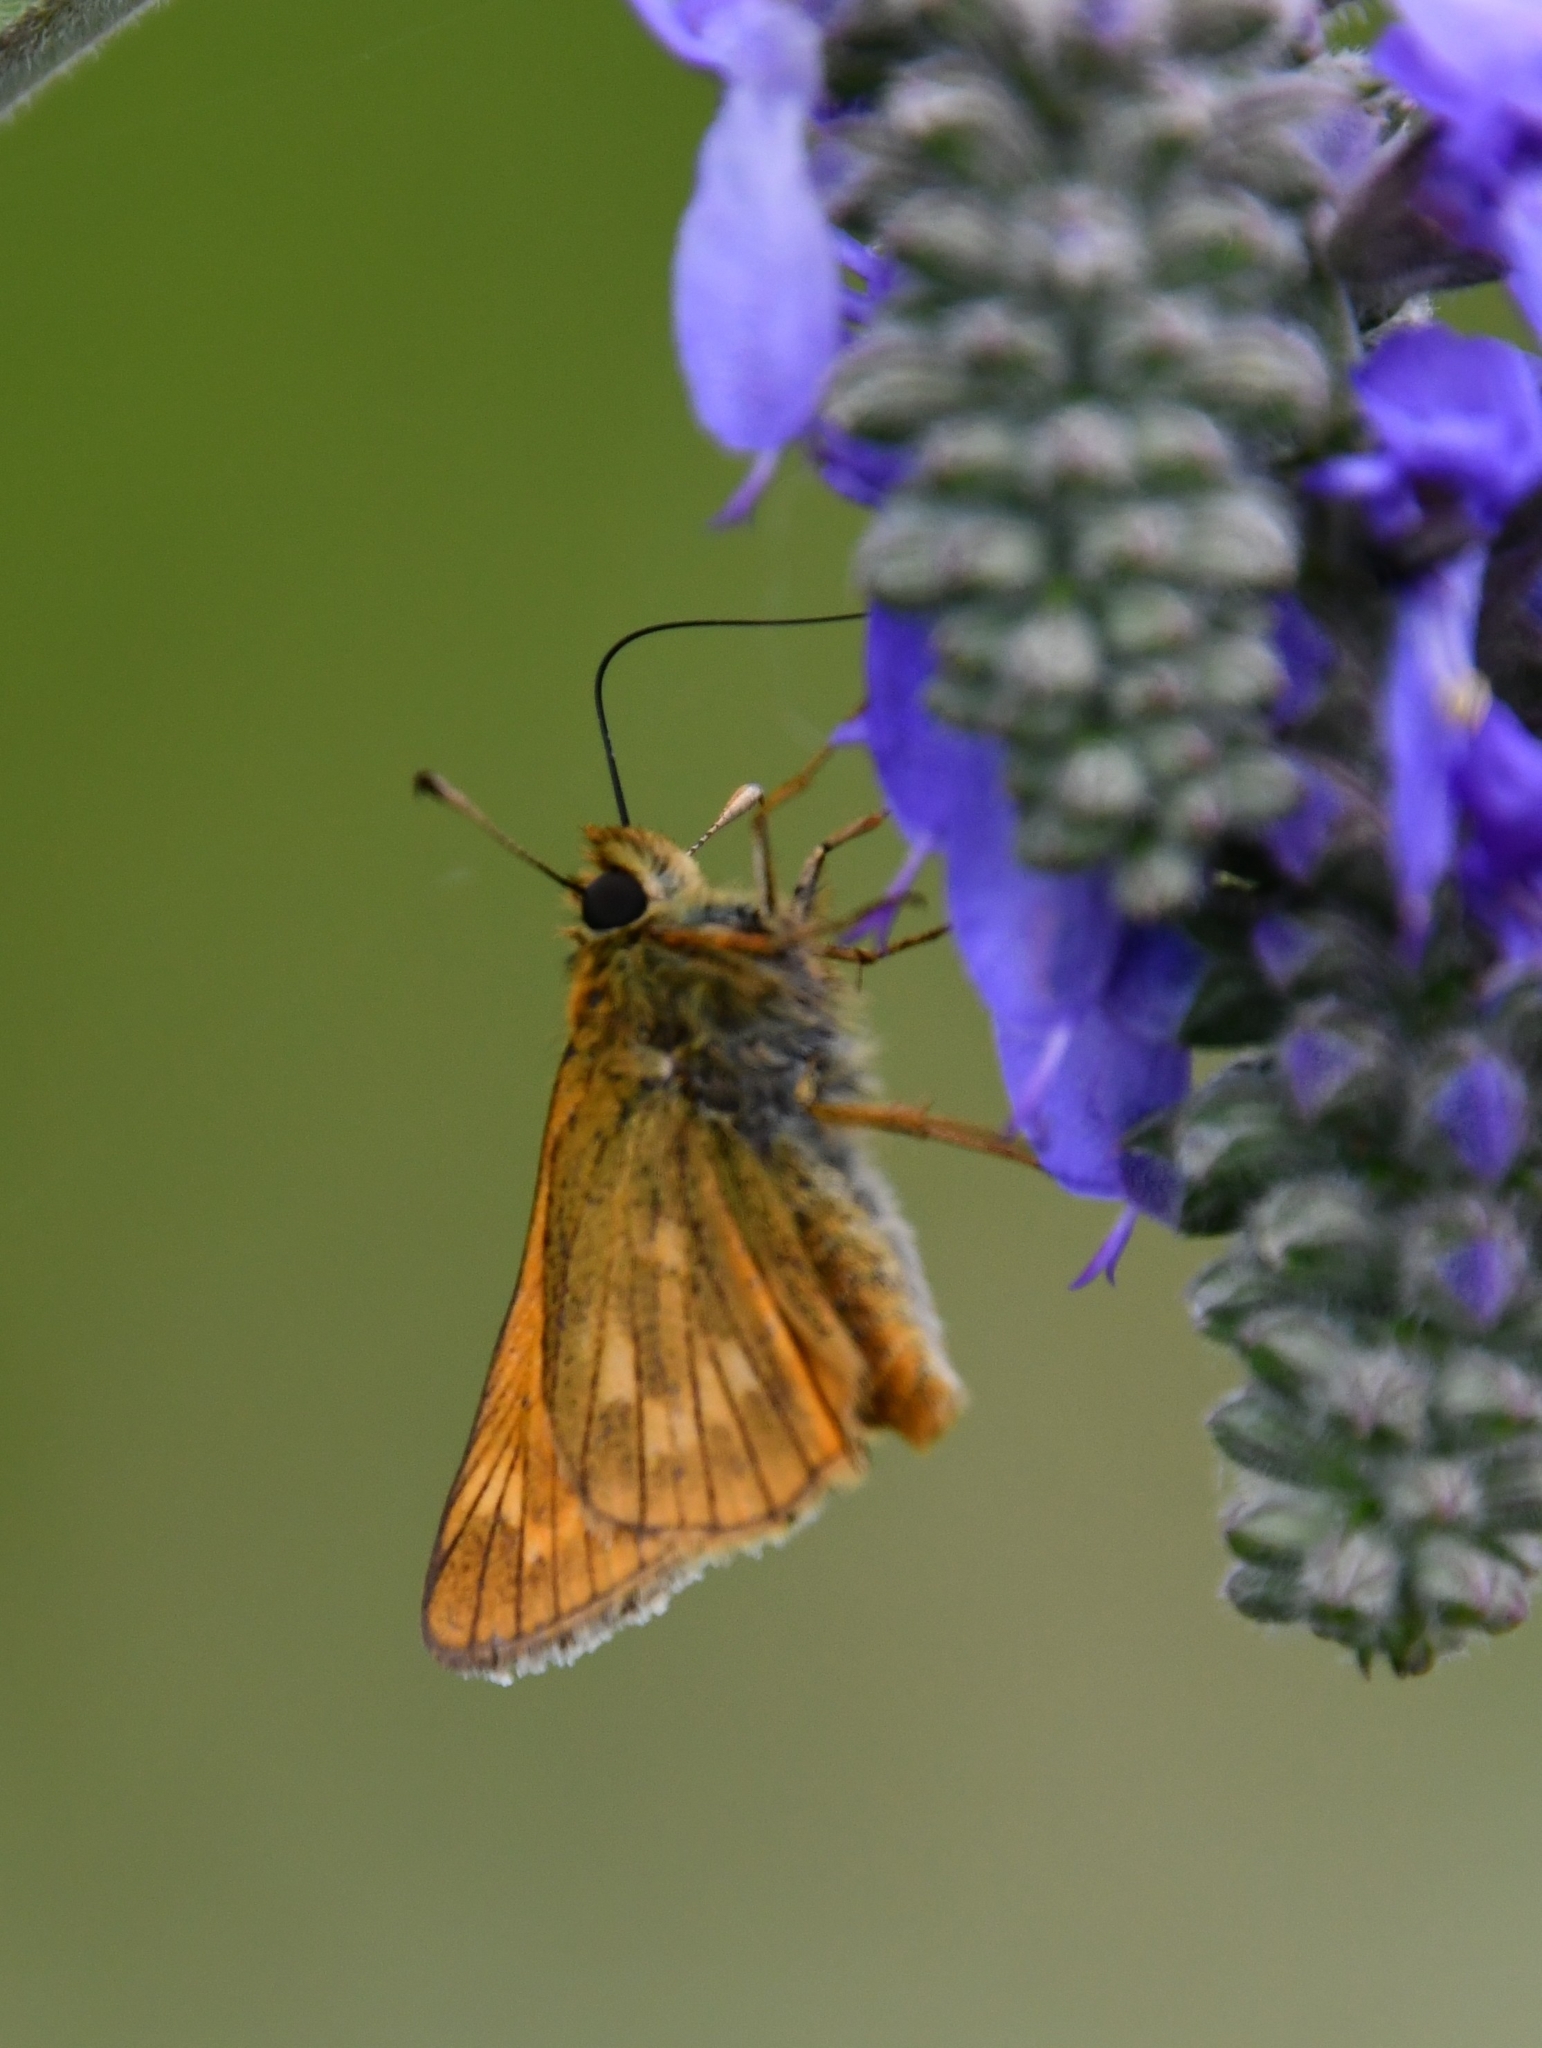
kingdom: Animalia
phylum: Arthropoda
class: Insecta
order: Lepidoptera
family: Hesperiidae
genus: Ochlodes
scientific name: Ochlodes venata
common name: Large skipper
